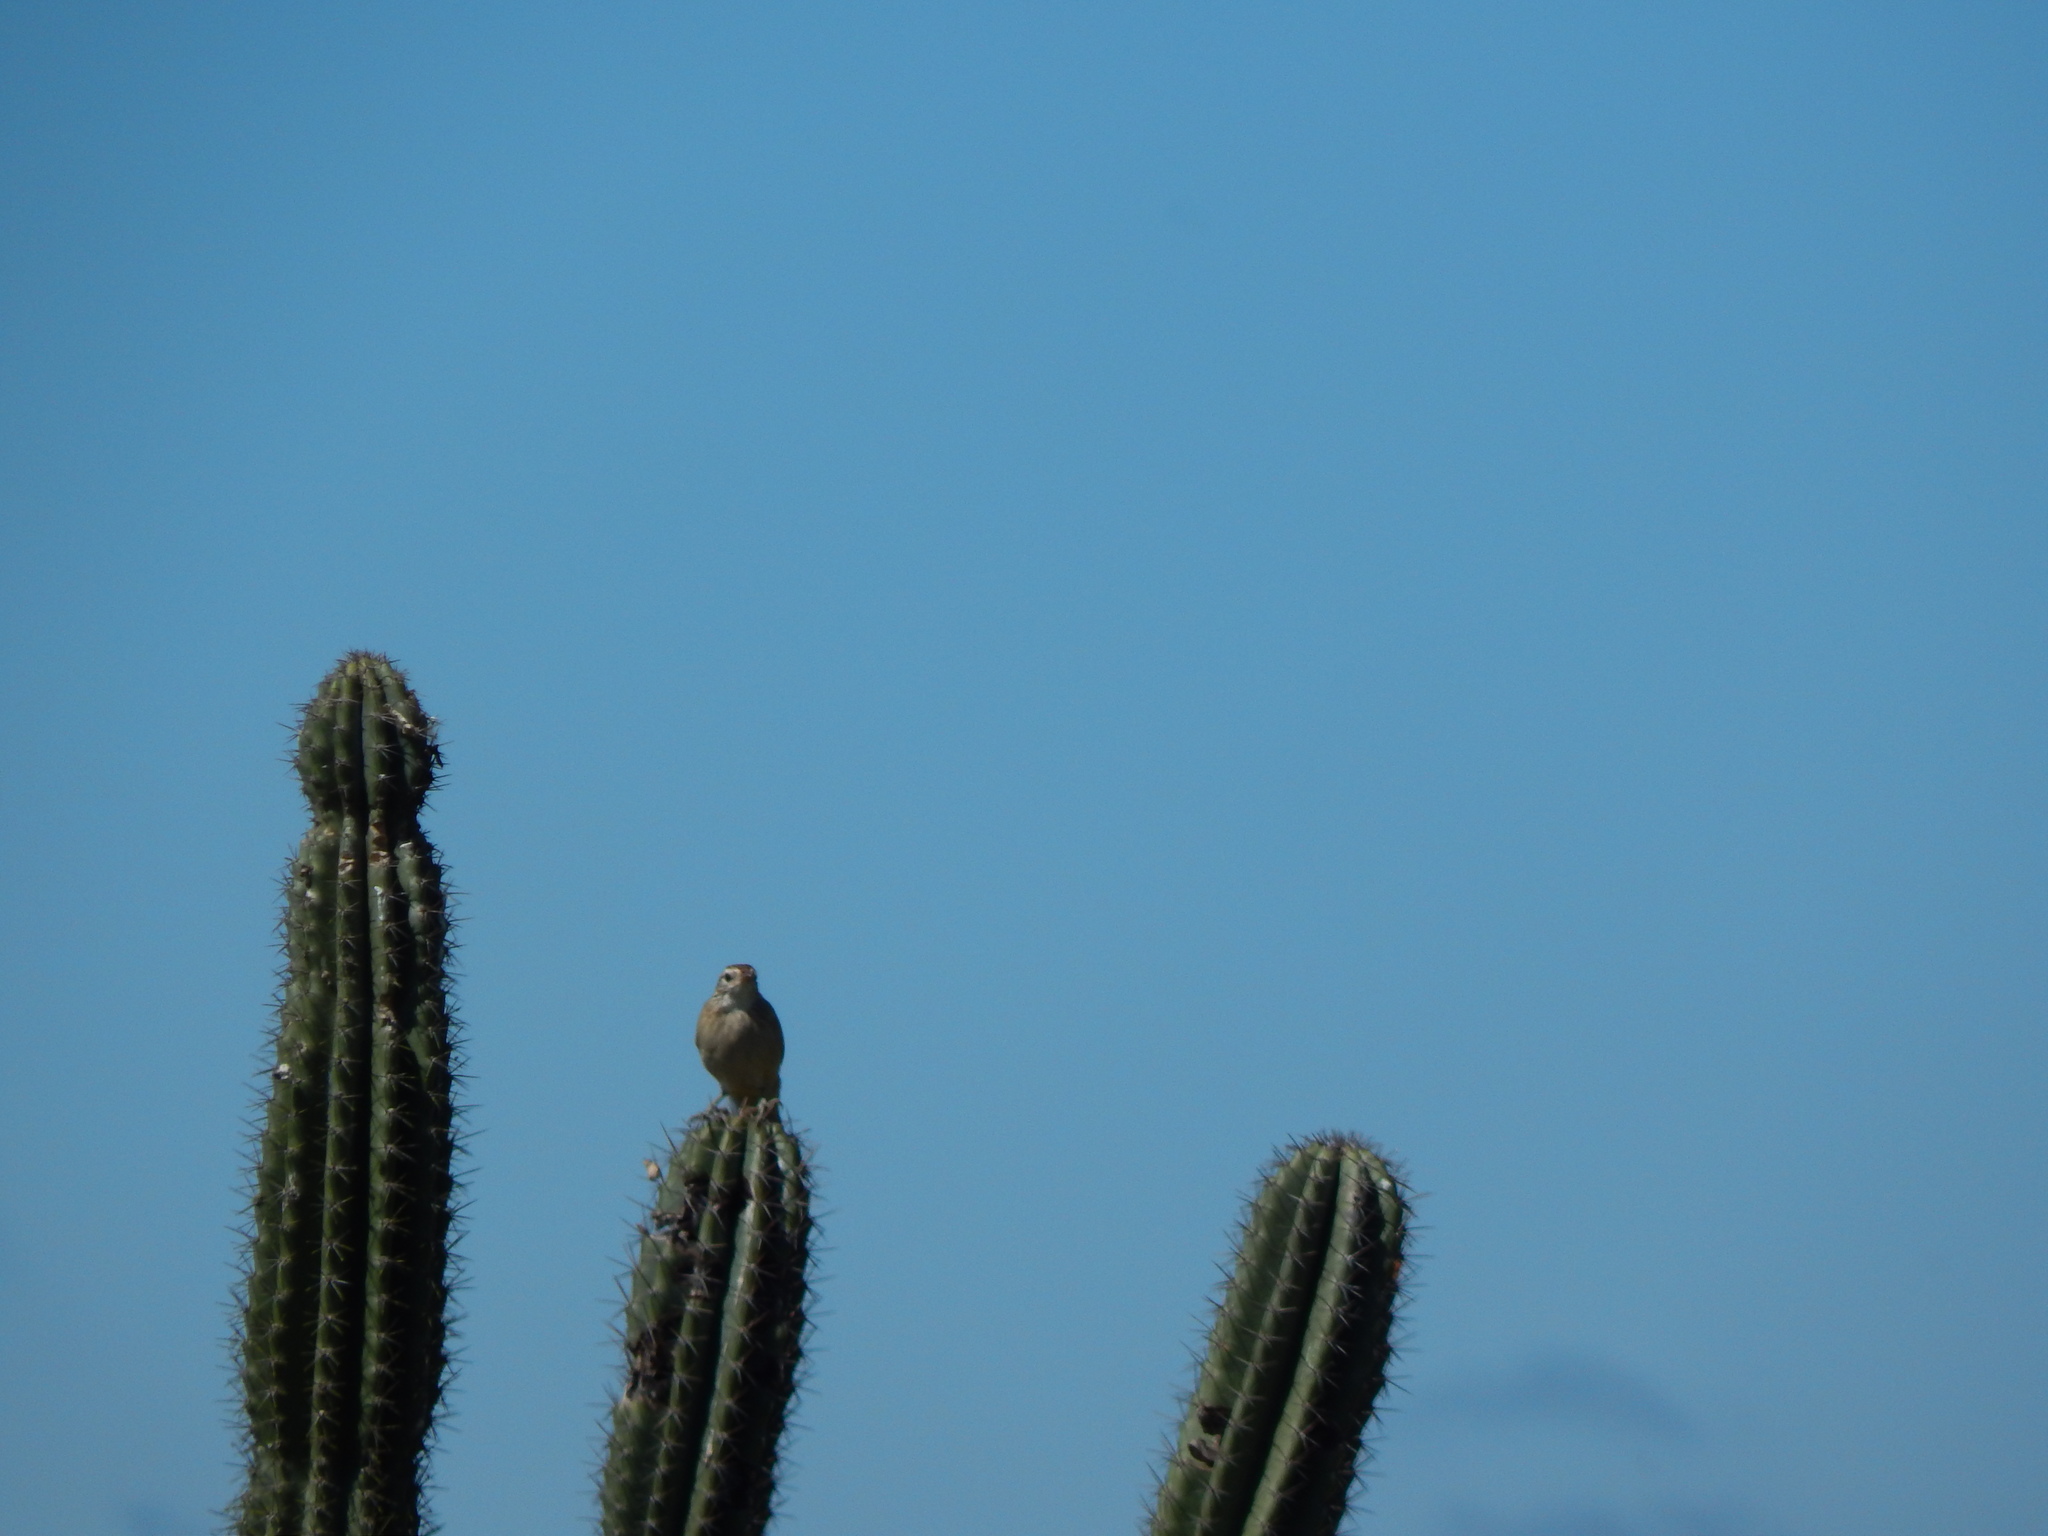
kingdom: Animalia
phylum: Chordata
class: Aves
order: Passeriformes
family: Furnariidae
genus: Anumbius
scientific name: Anumbius annumbi
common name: Firewood-gatherer
